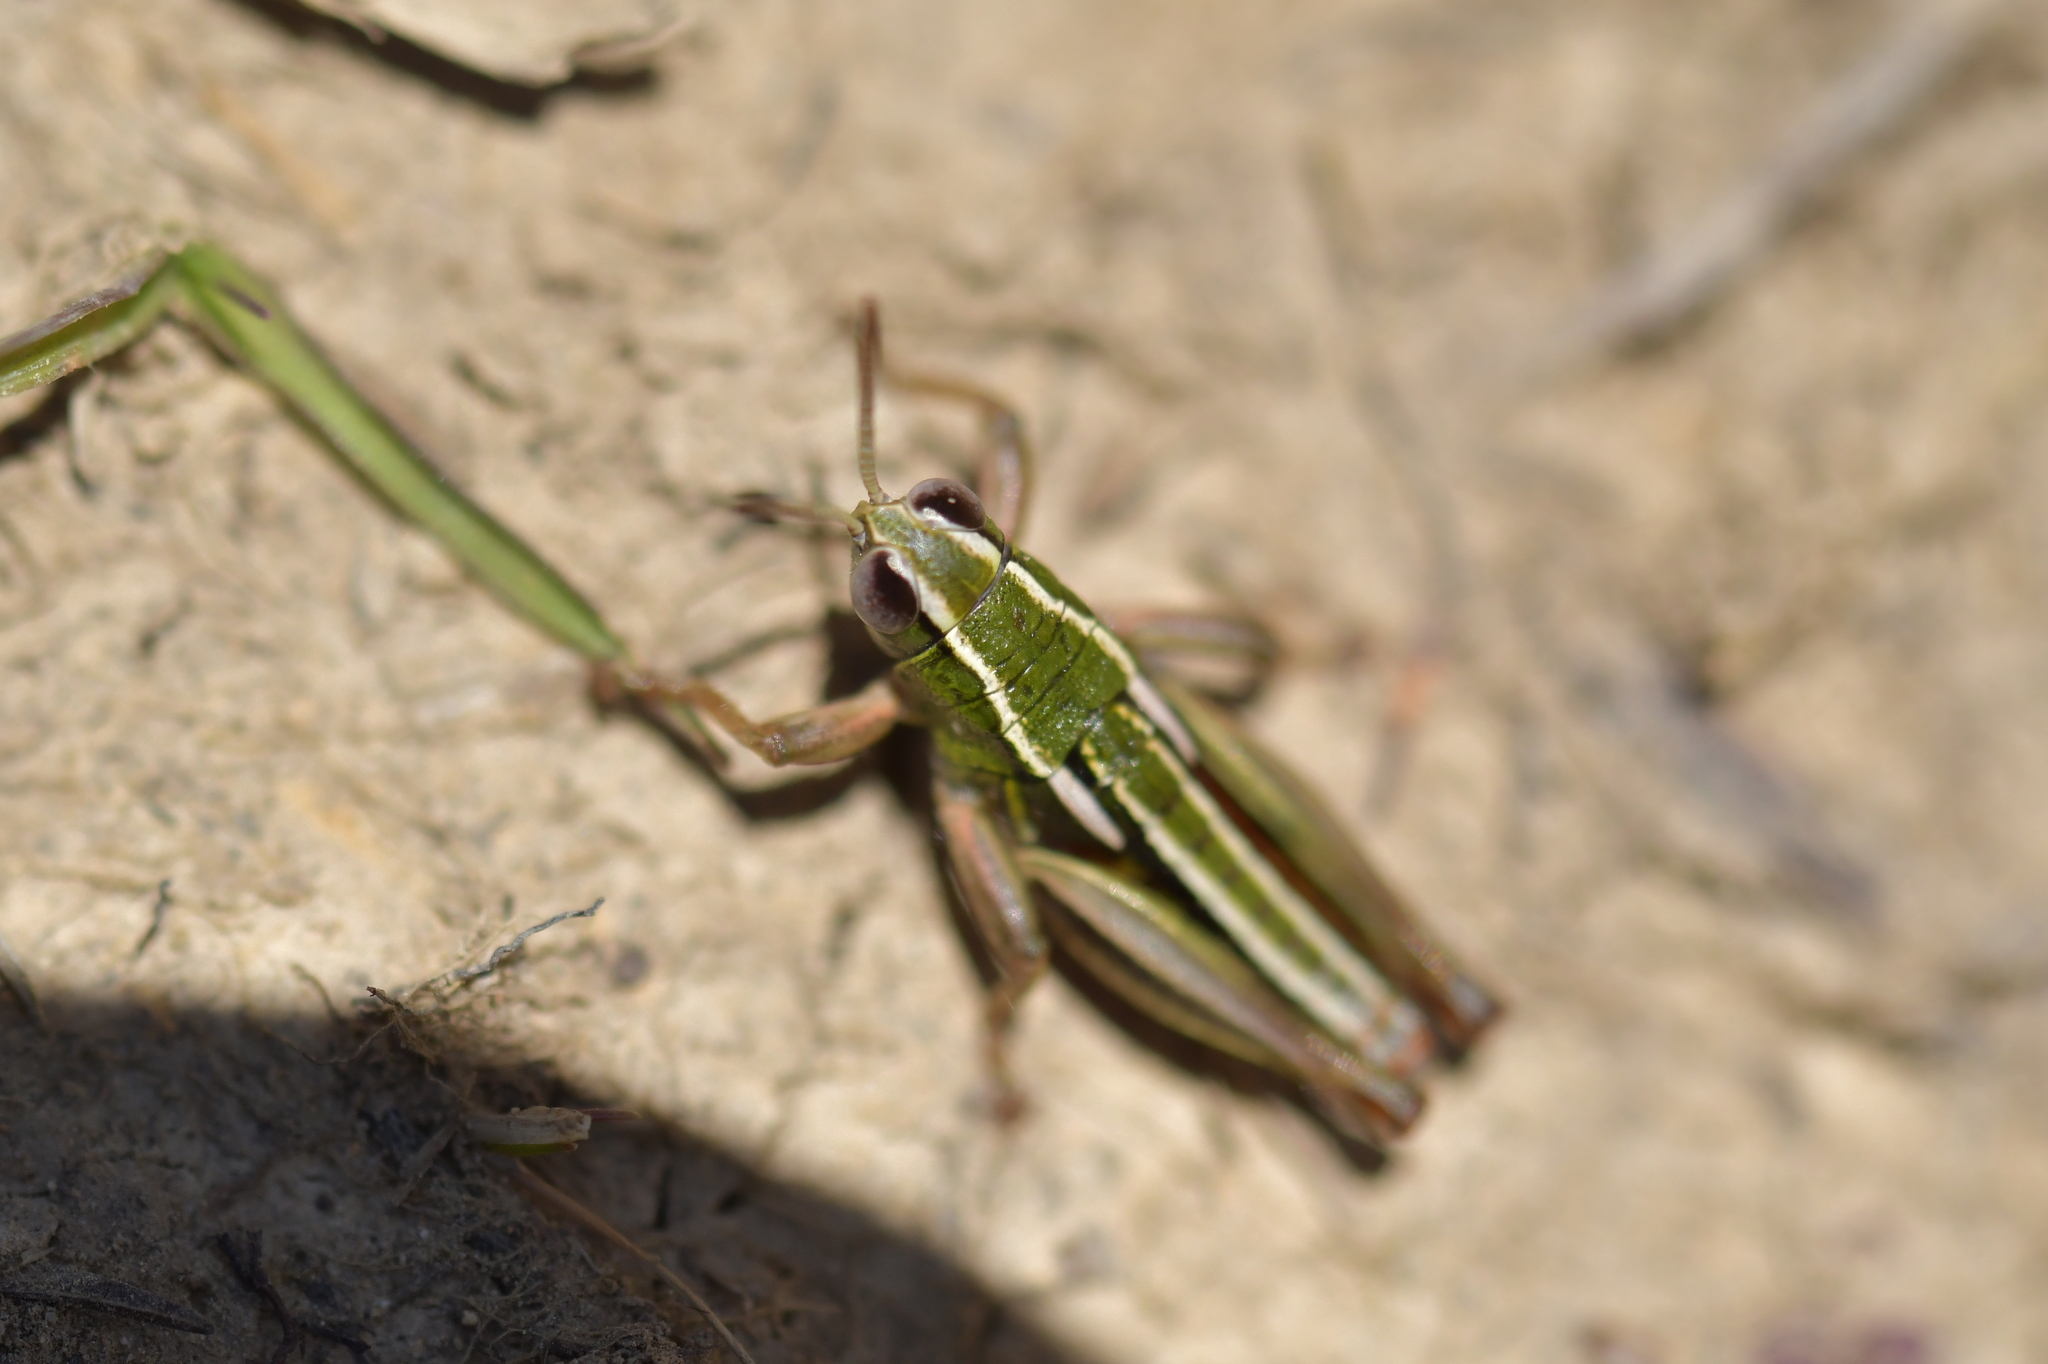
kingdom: Animalia
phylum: Arthropoda
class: Insecta
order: Orthoptera
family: Acrididae
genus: Sigaus
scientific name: Sigaus
